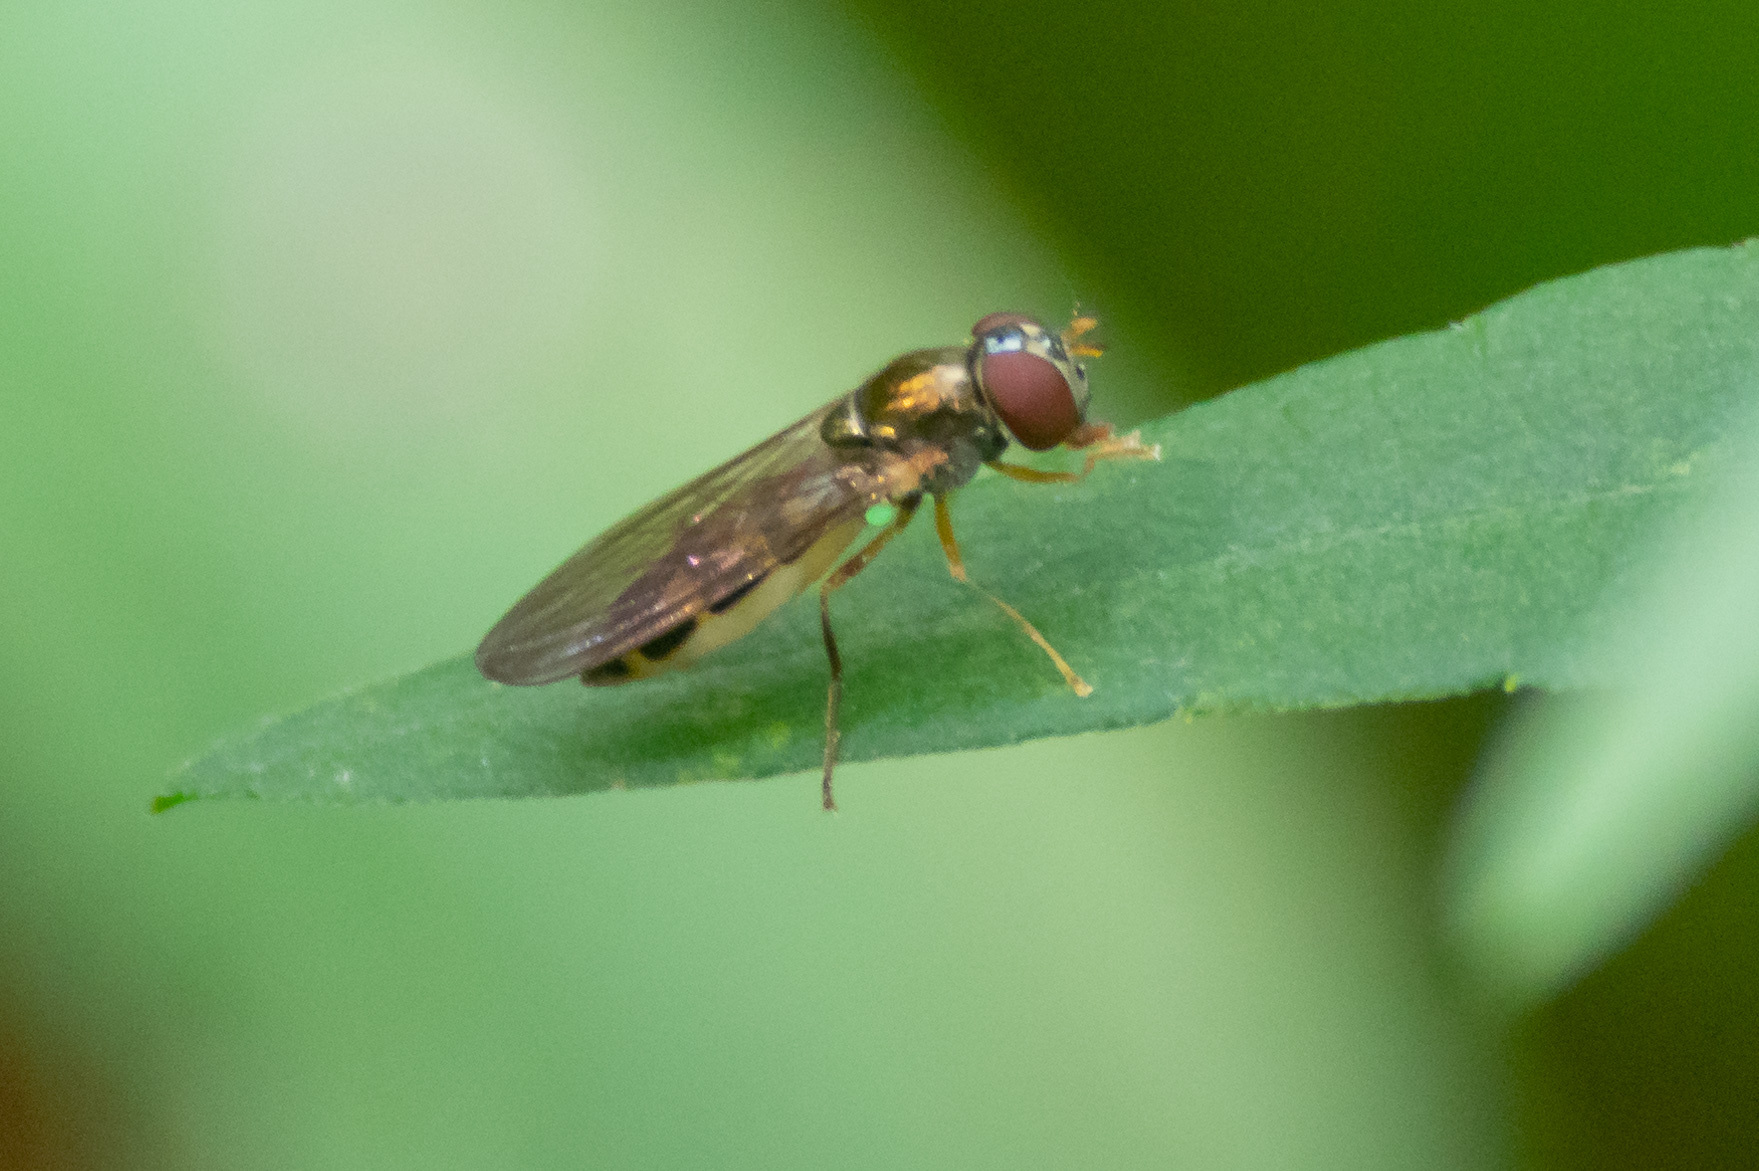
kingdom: Animalia
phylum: Arthropoda
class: Insecta
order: Diptera
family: Syrphidae
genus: Melanostoma
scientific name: Melanostoma mellina
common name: Hover fly
